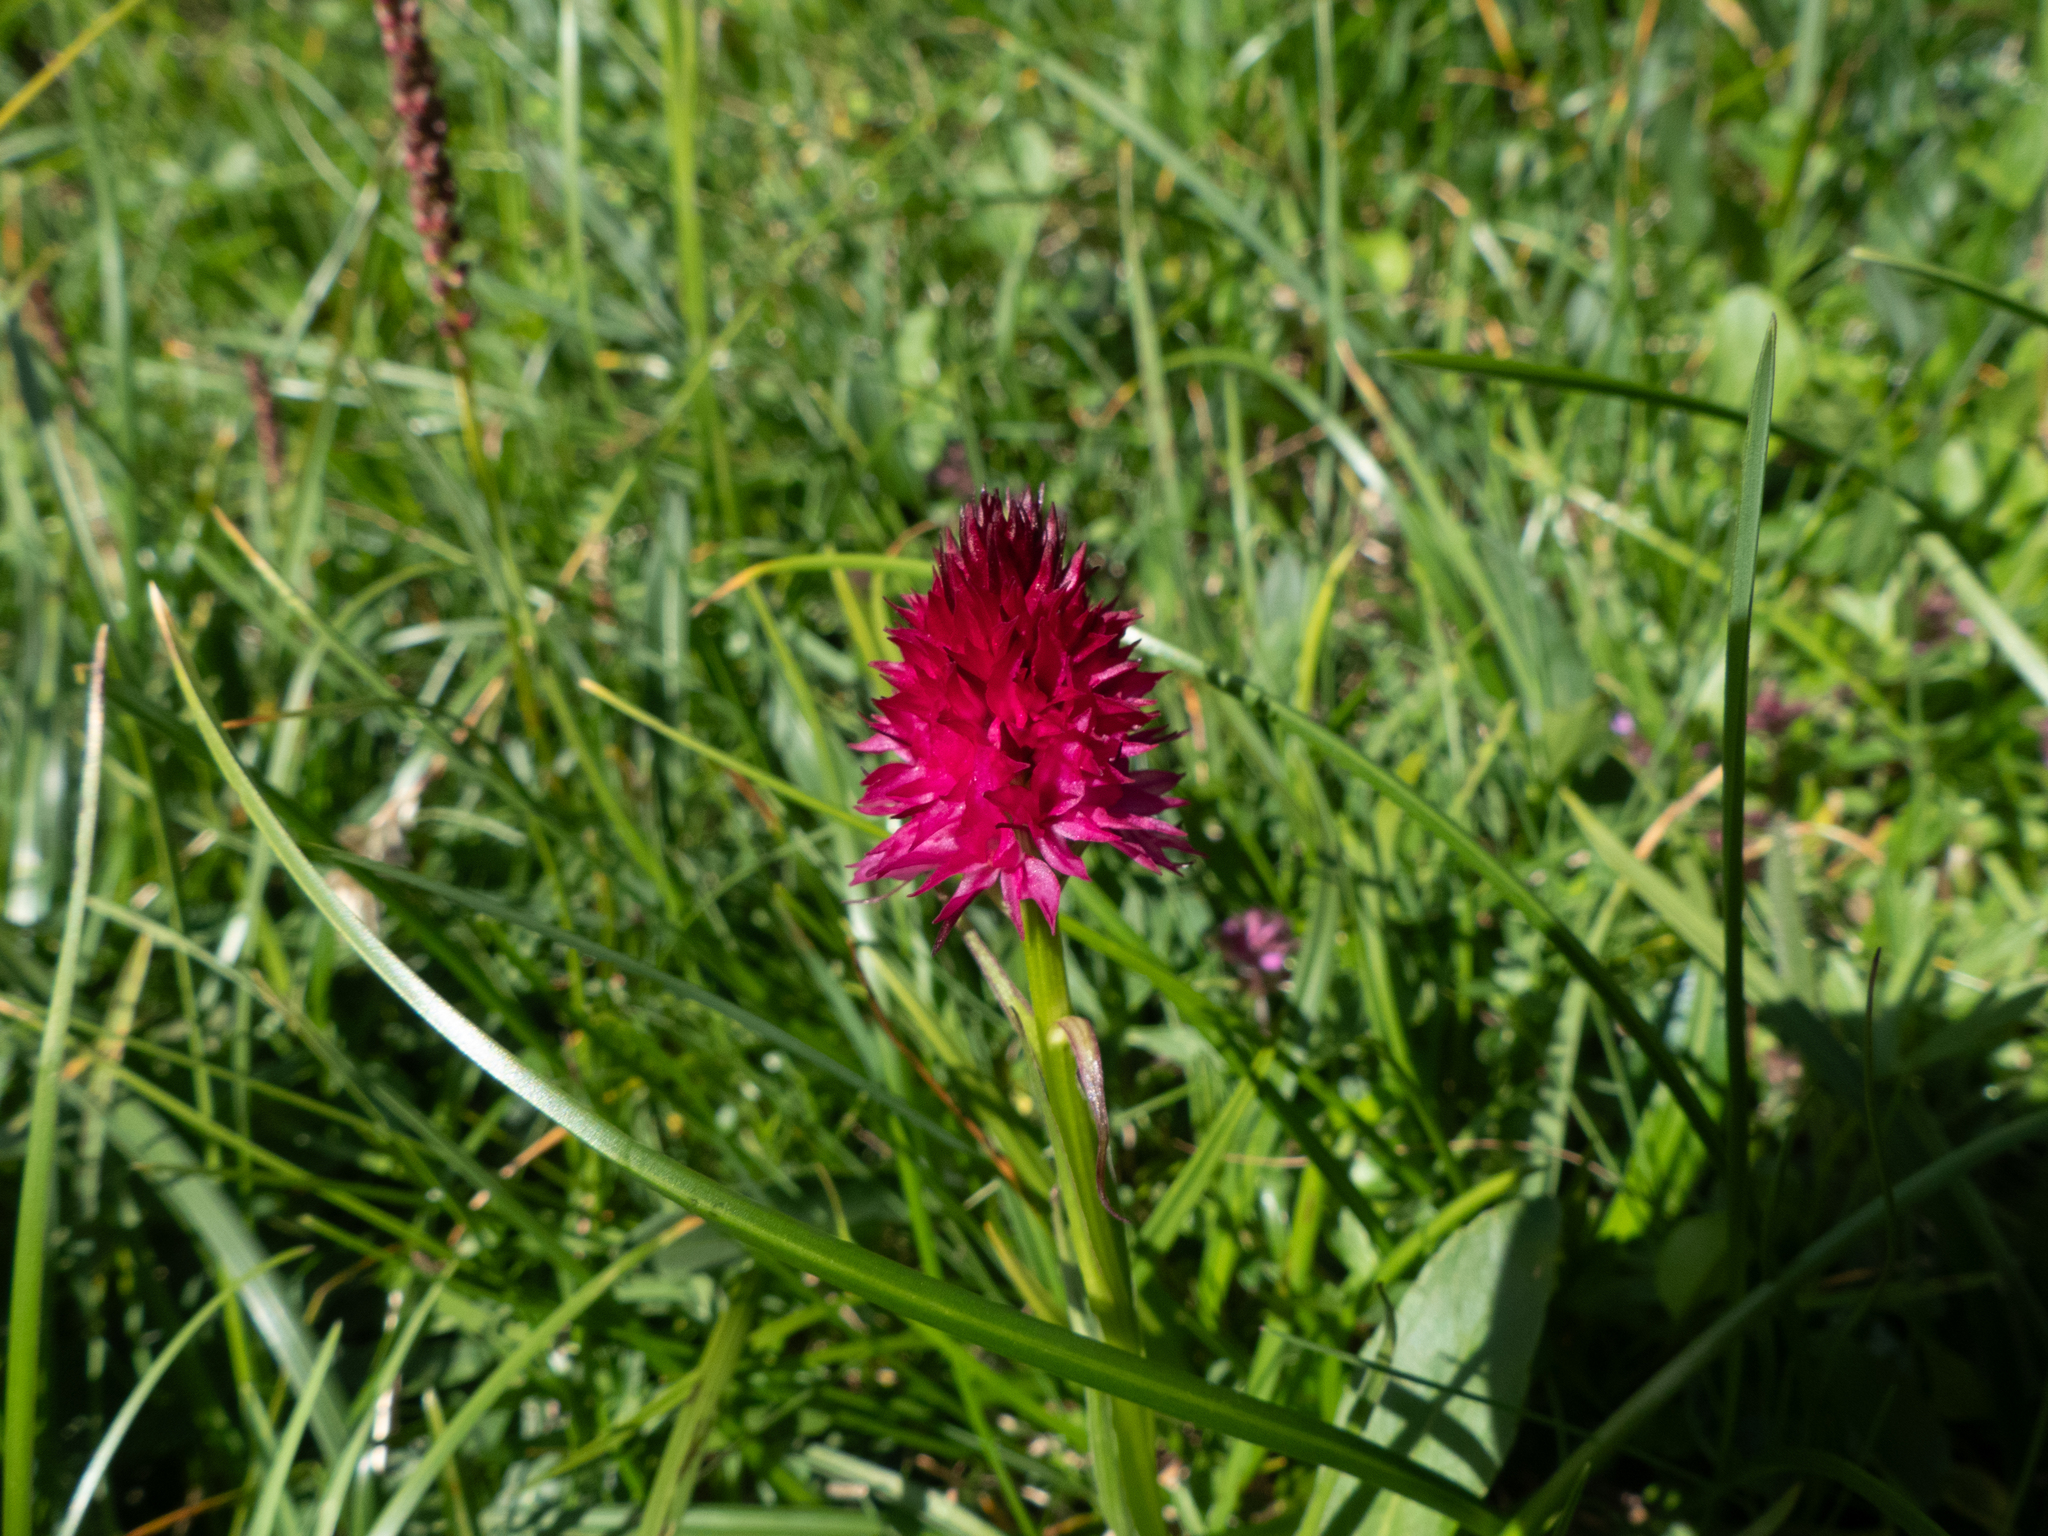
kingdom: Plantae
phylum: Tracheophyta
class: Liliopsida
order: Asparagales
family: Orchidaceae
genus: Gymnadenia
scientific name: Gymnadenia miniata
